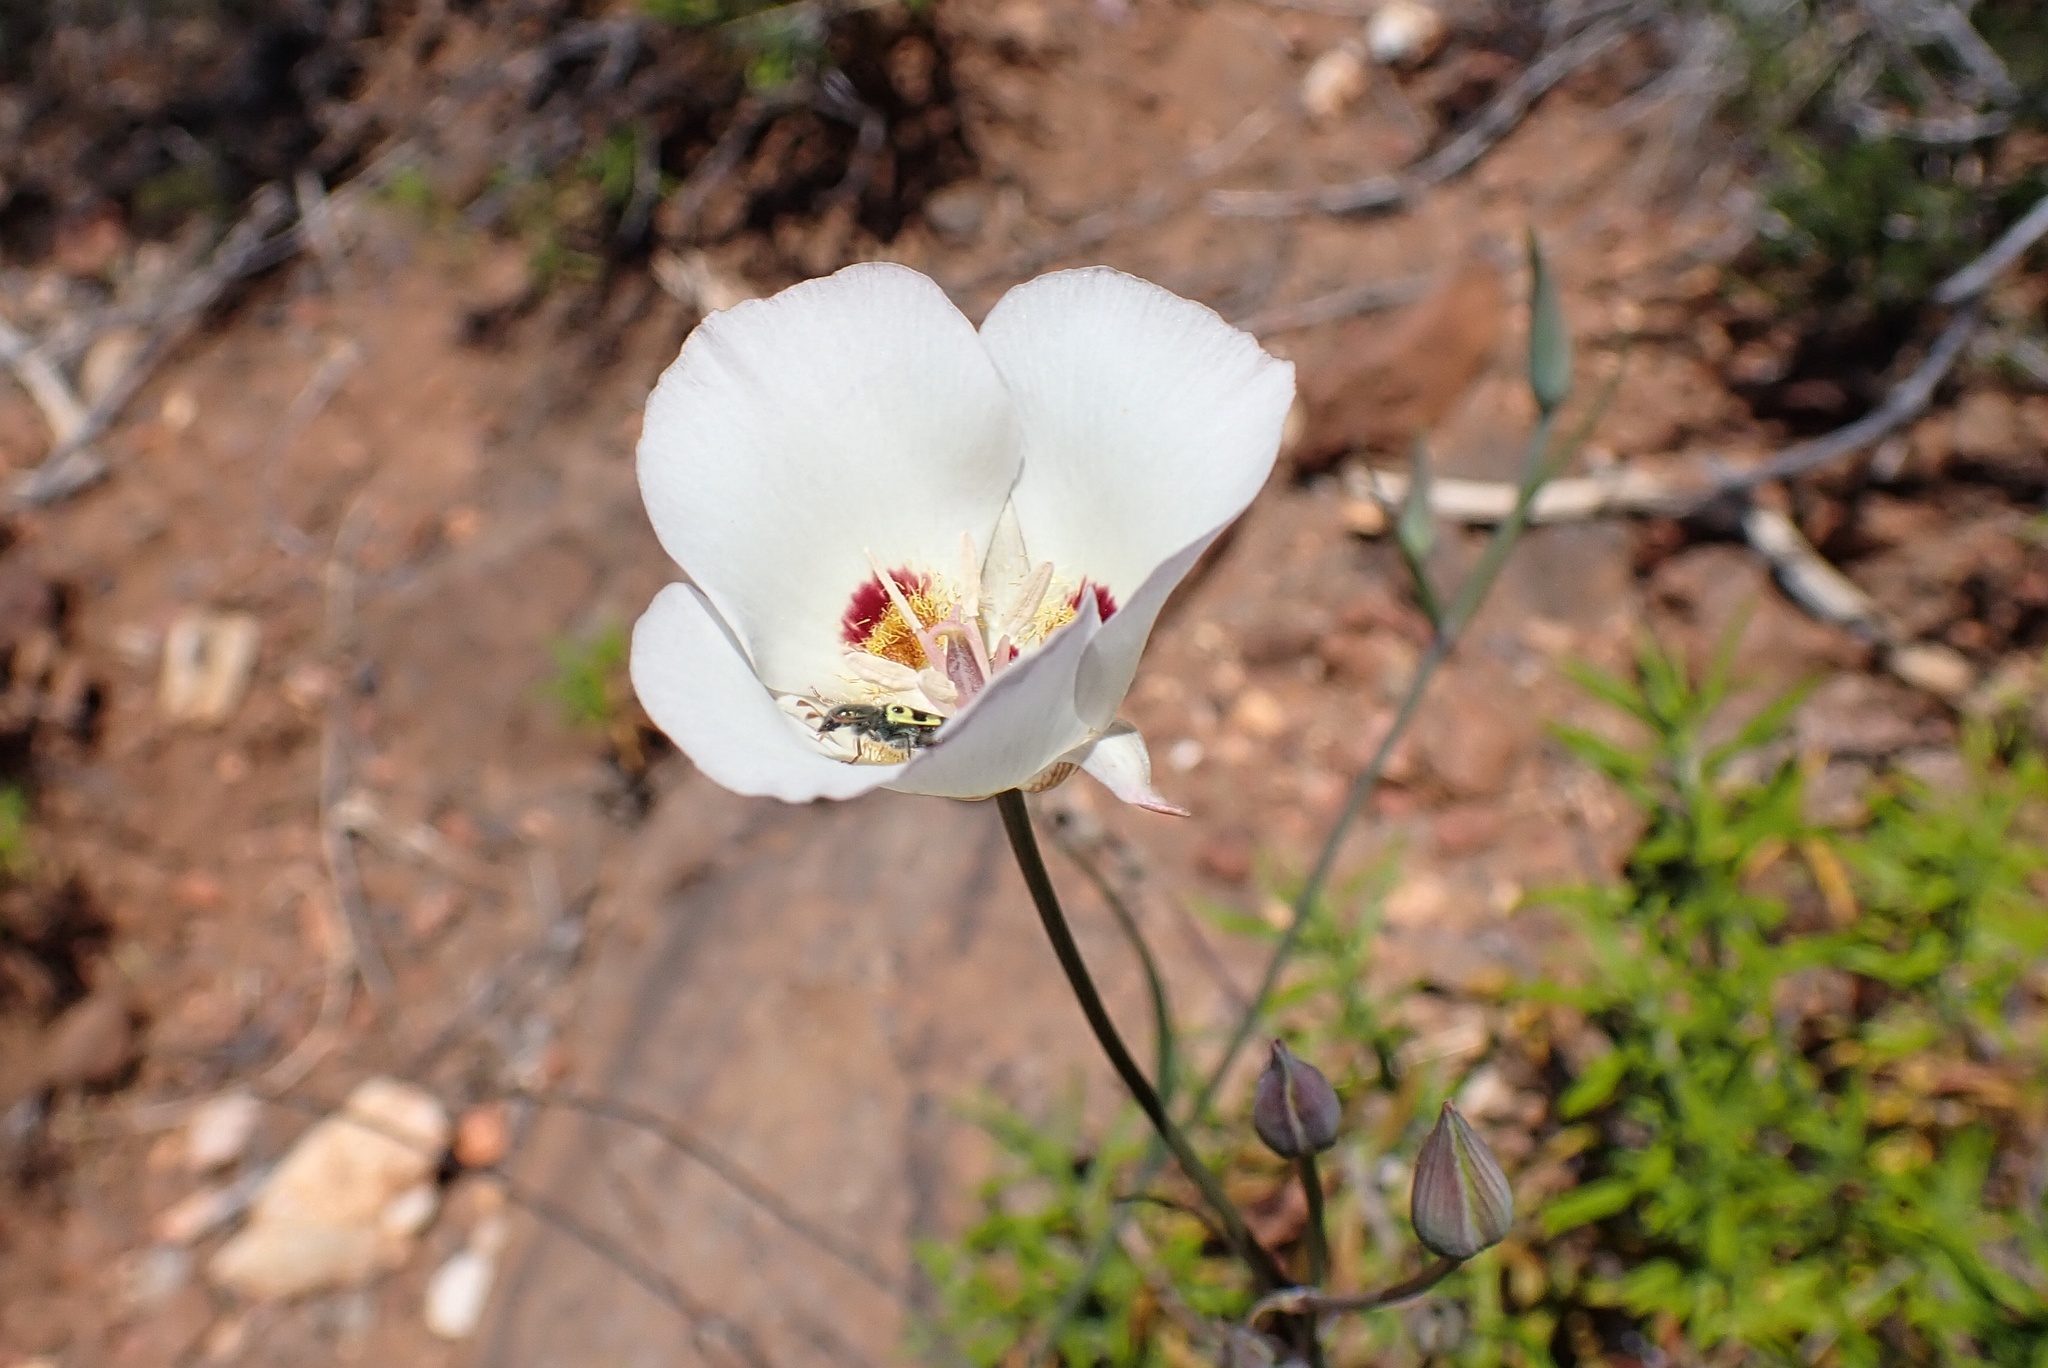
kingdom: Plantae
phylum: Tracheophyta
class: Liliopsida
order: Liliales
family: Liliaceae
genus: Calochortus
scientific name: Calochortus dunnii
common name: Dunn's mariposa-lily
